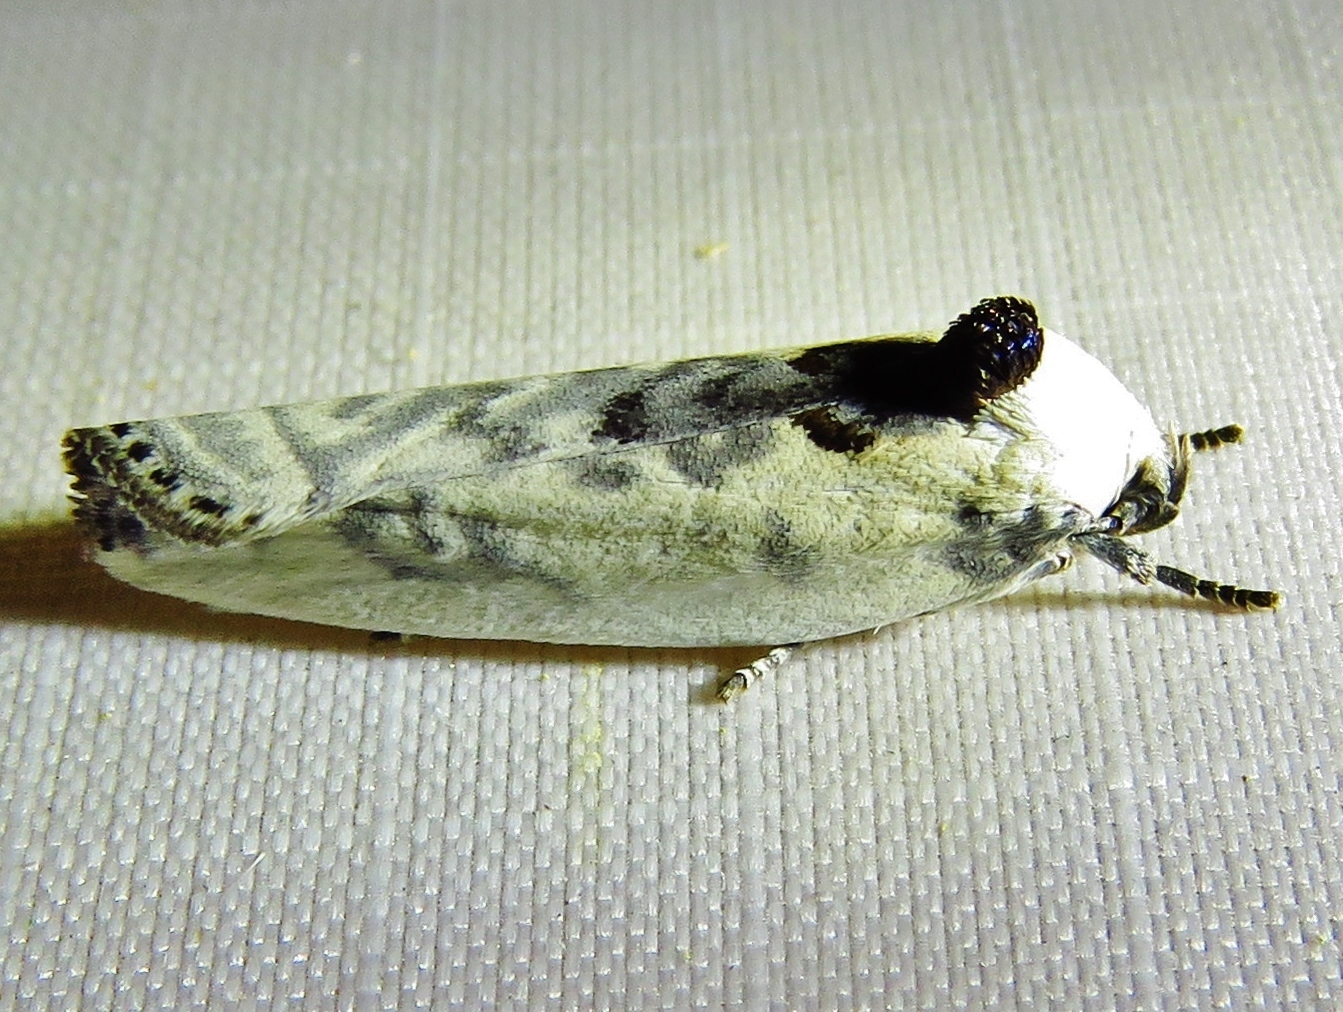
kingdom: Animalia
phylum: Arthropoda
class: Insecta
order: Lepidoptera
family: Depressariidae
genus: Antaeotricha
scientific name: Antaeotricha schlaegeri
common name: Schlaeger's fruitworm moth
